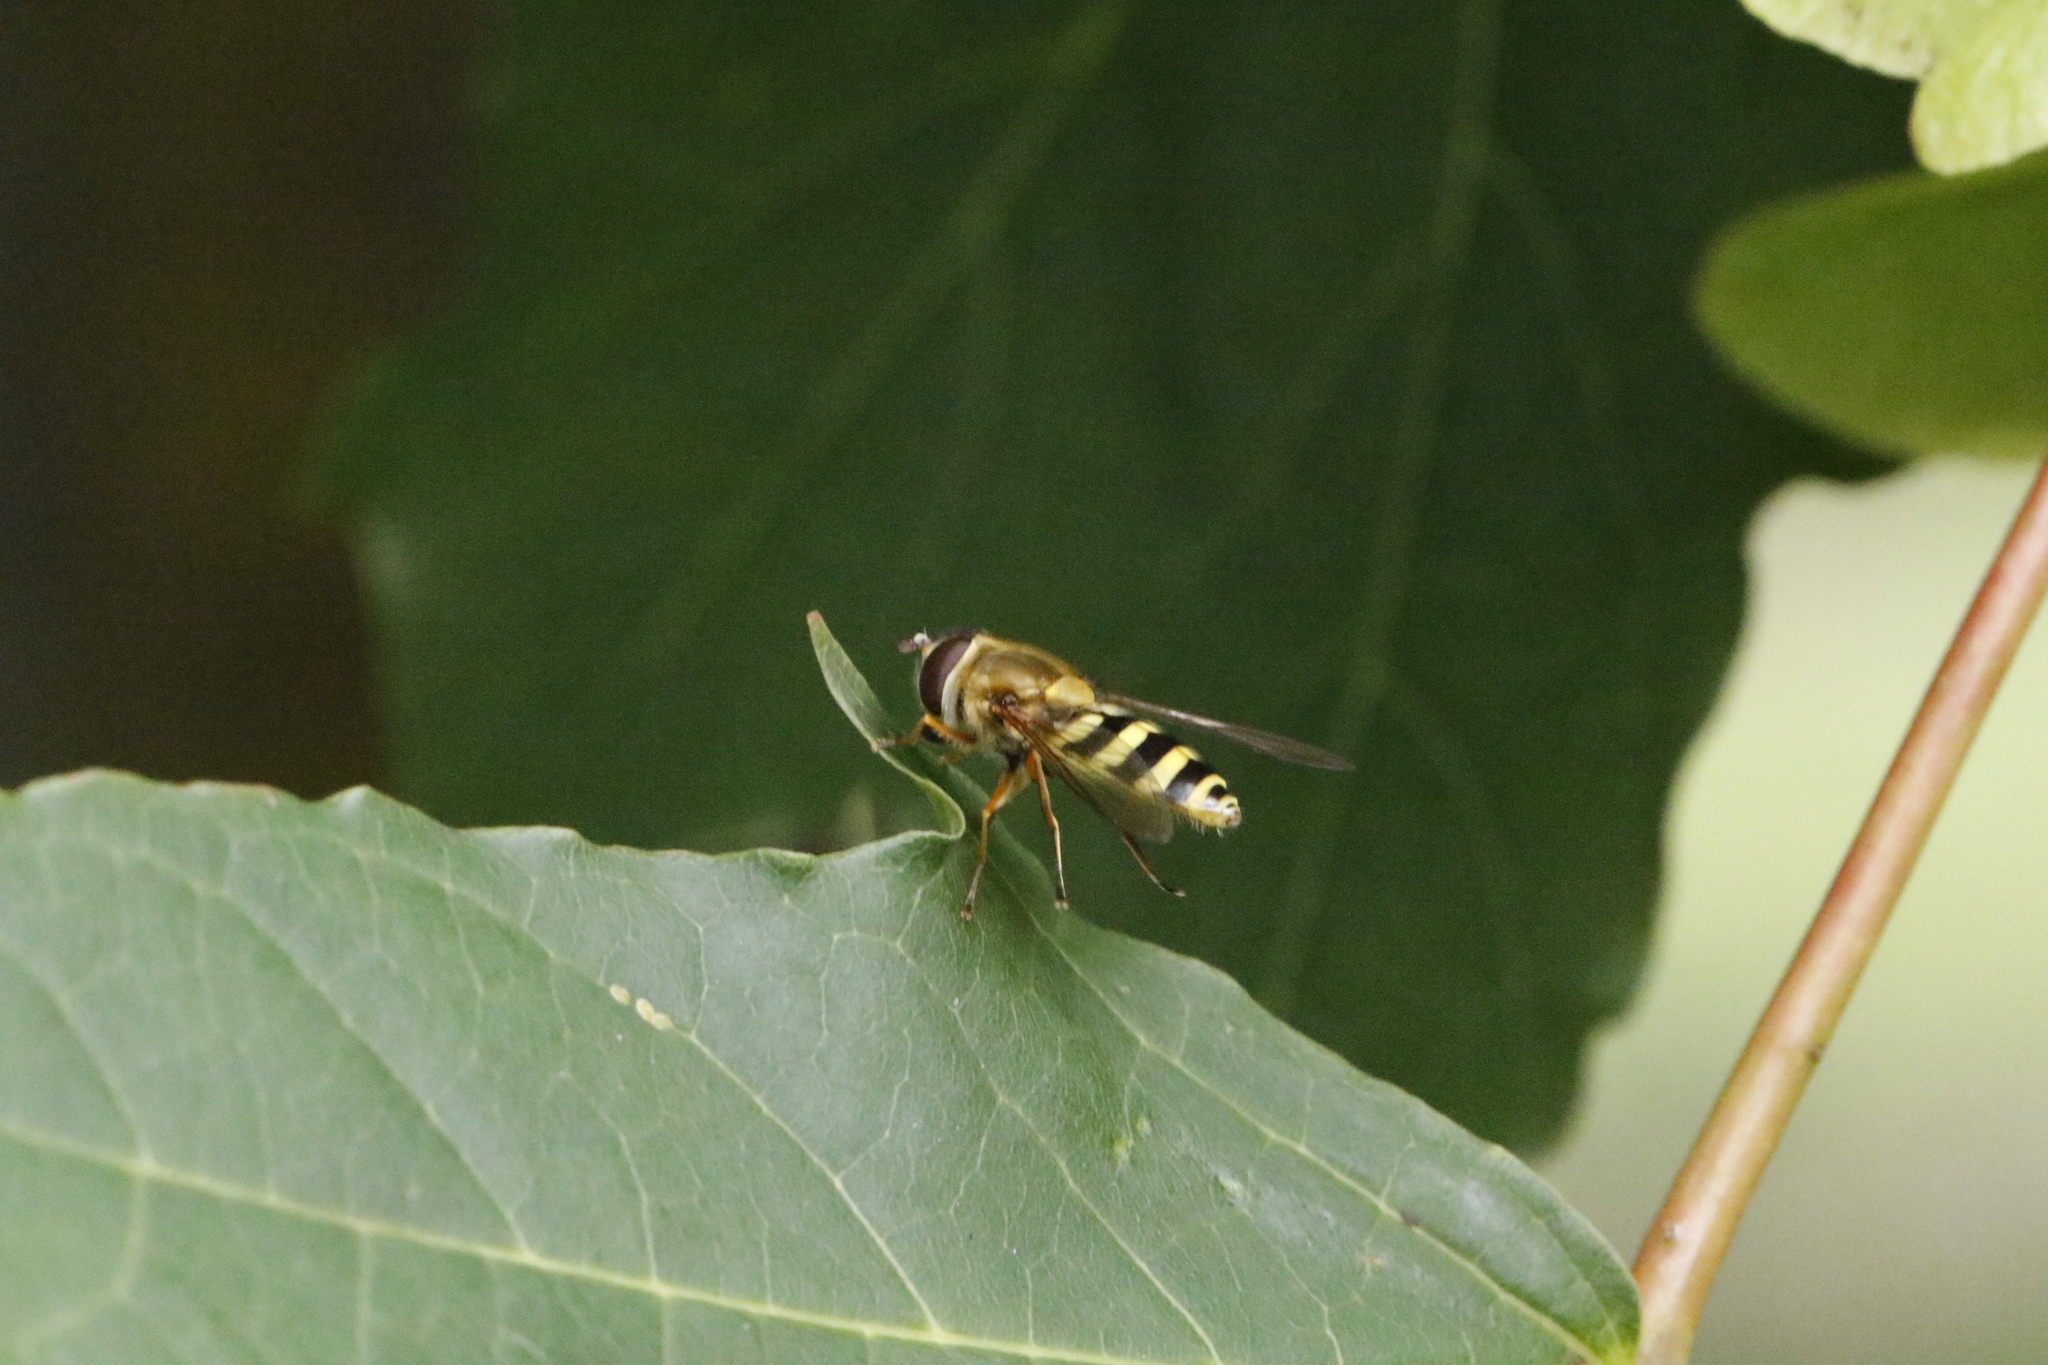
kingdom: Animalia
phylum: Arthropoda
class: Insecta
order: Diptera
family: Syrphidae
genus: Syrphus
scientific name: Syrphus
